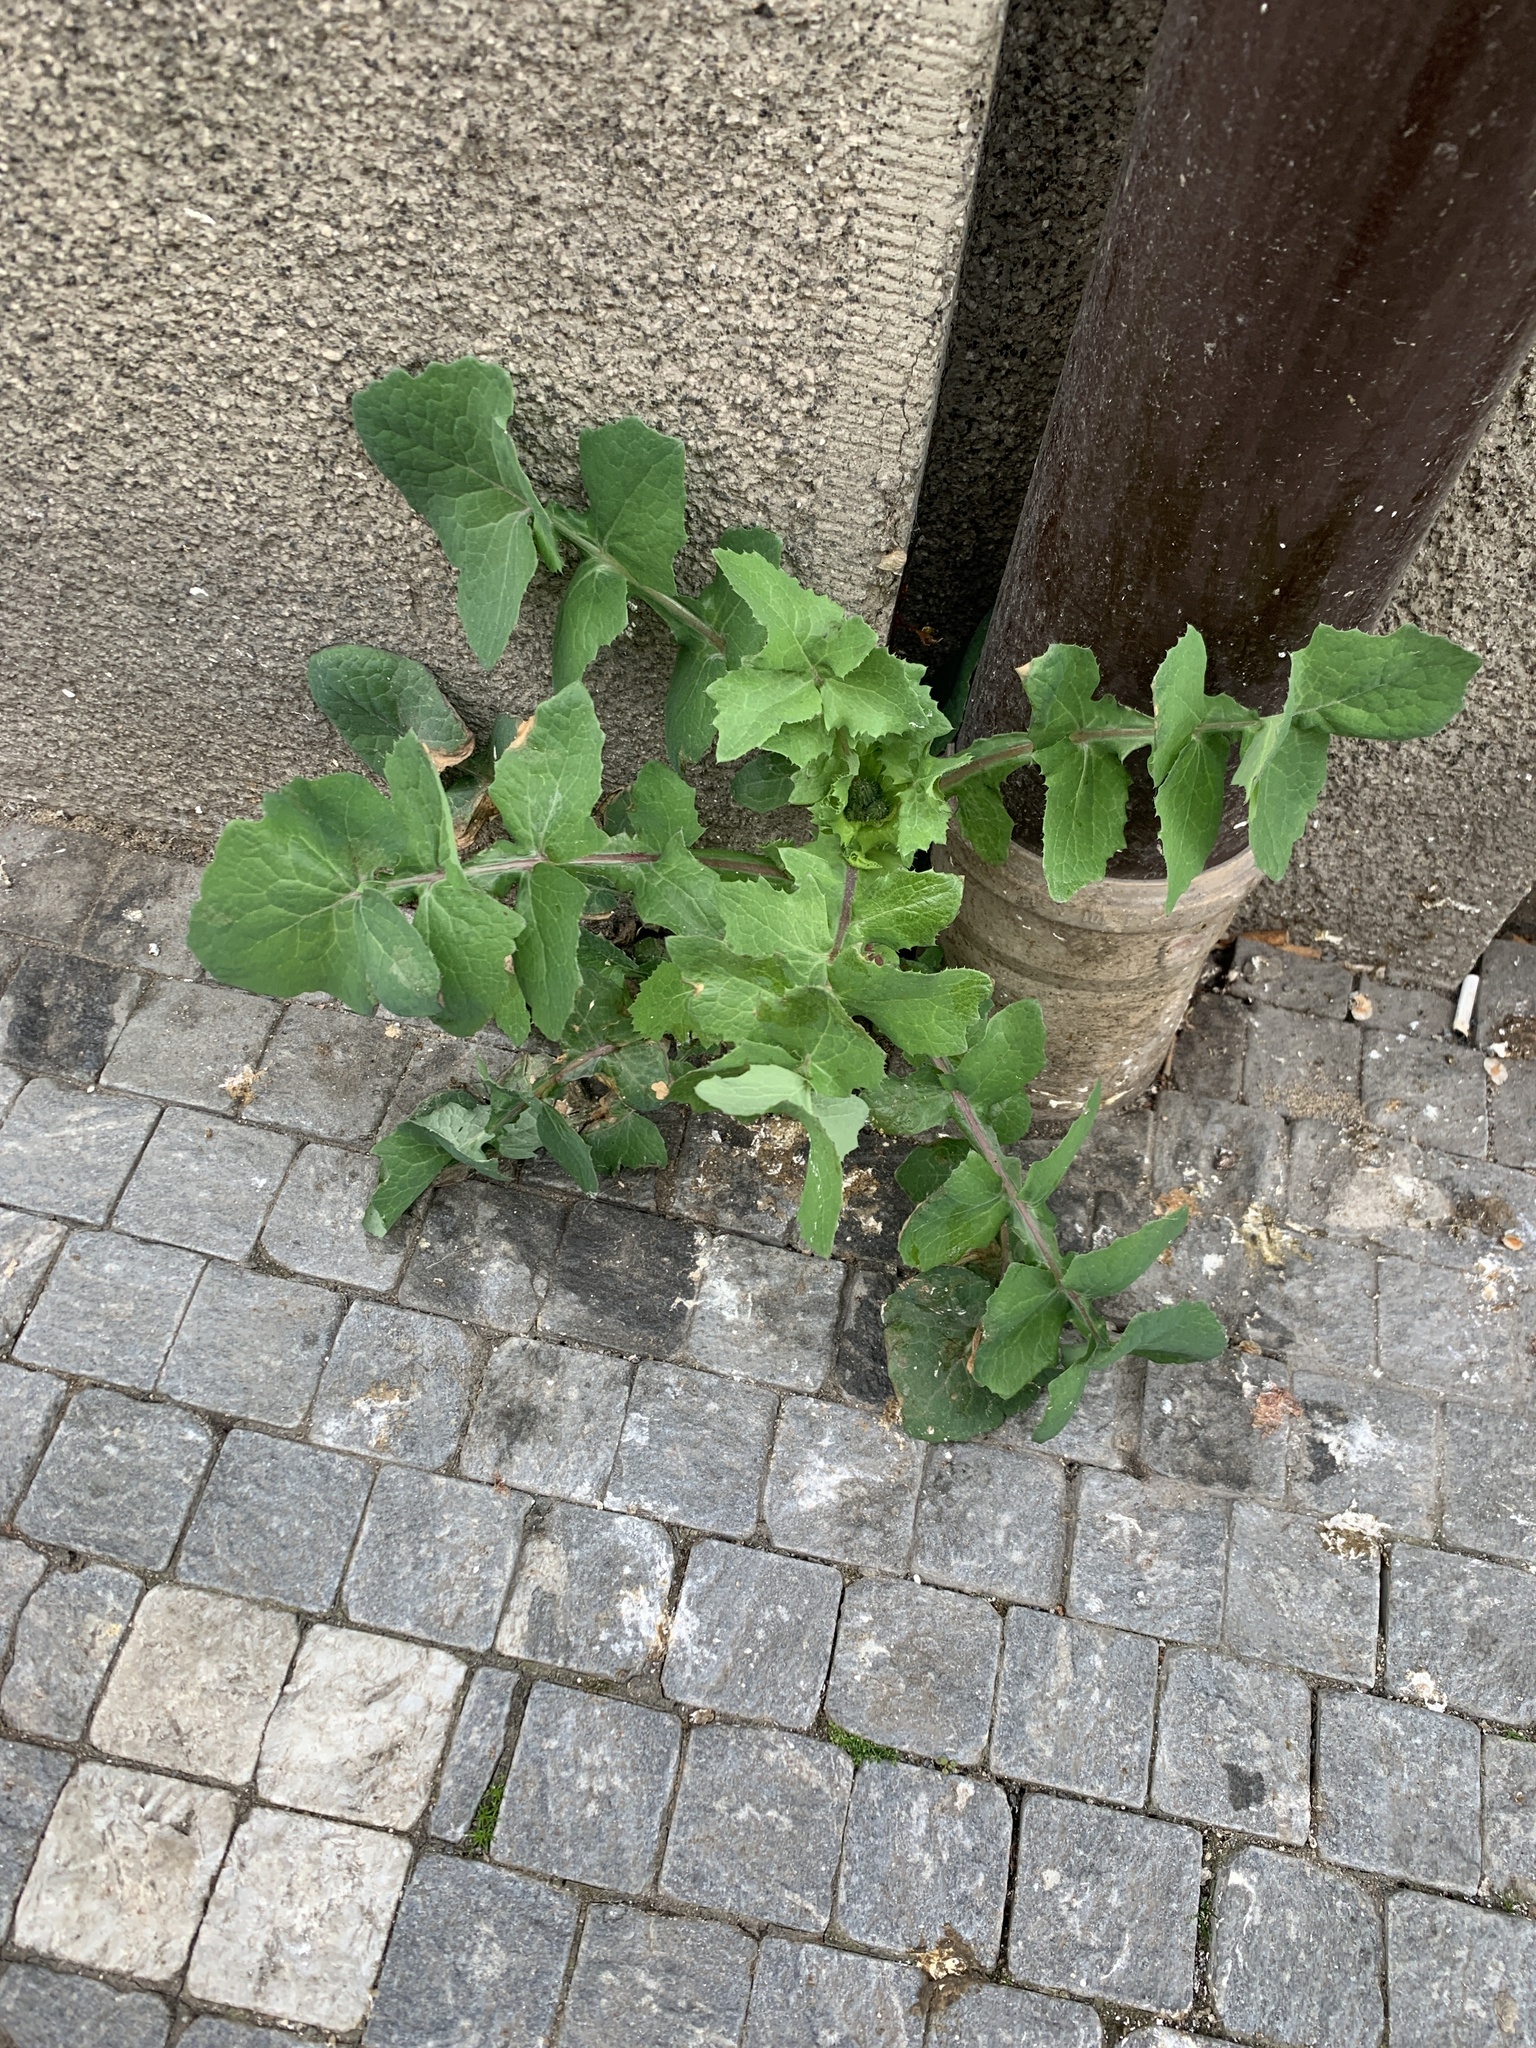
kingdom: Plantae
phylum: Tracheophyta
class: Magnoliopsida
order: Asterales
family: Asteraceae
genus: Sonchus
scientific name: Sonchus oleraceus
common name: Common sowthistle
